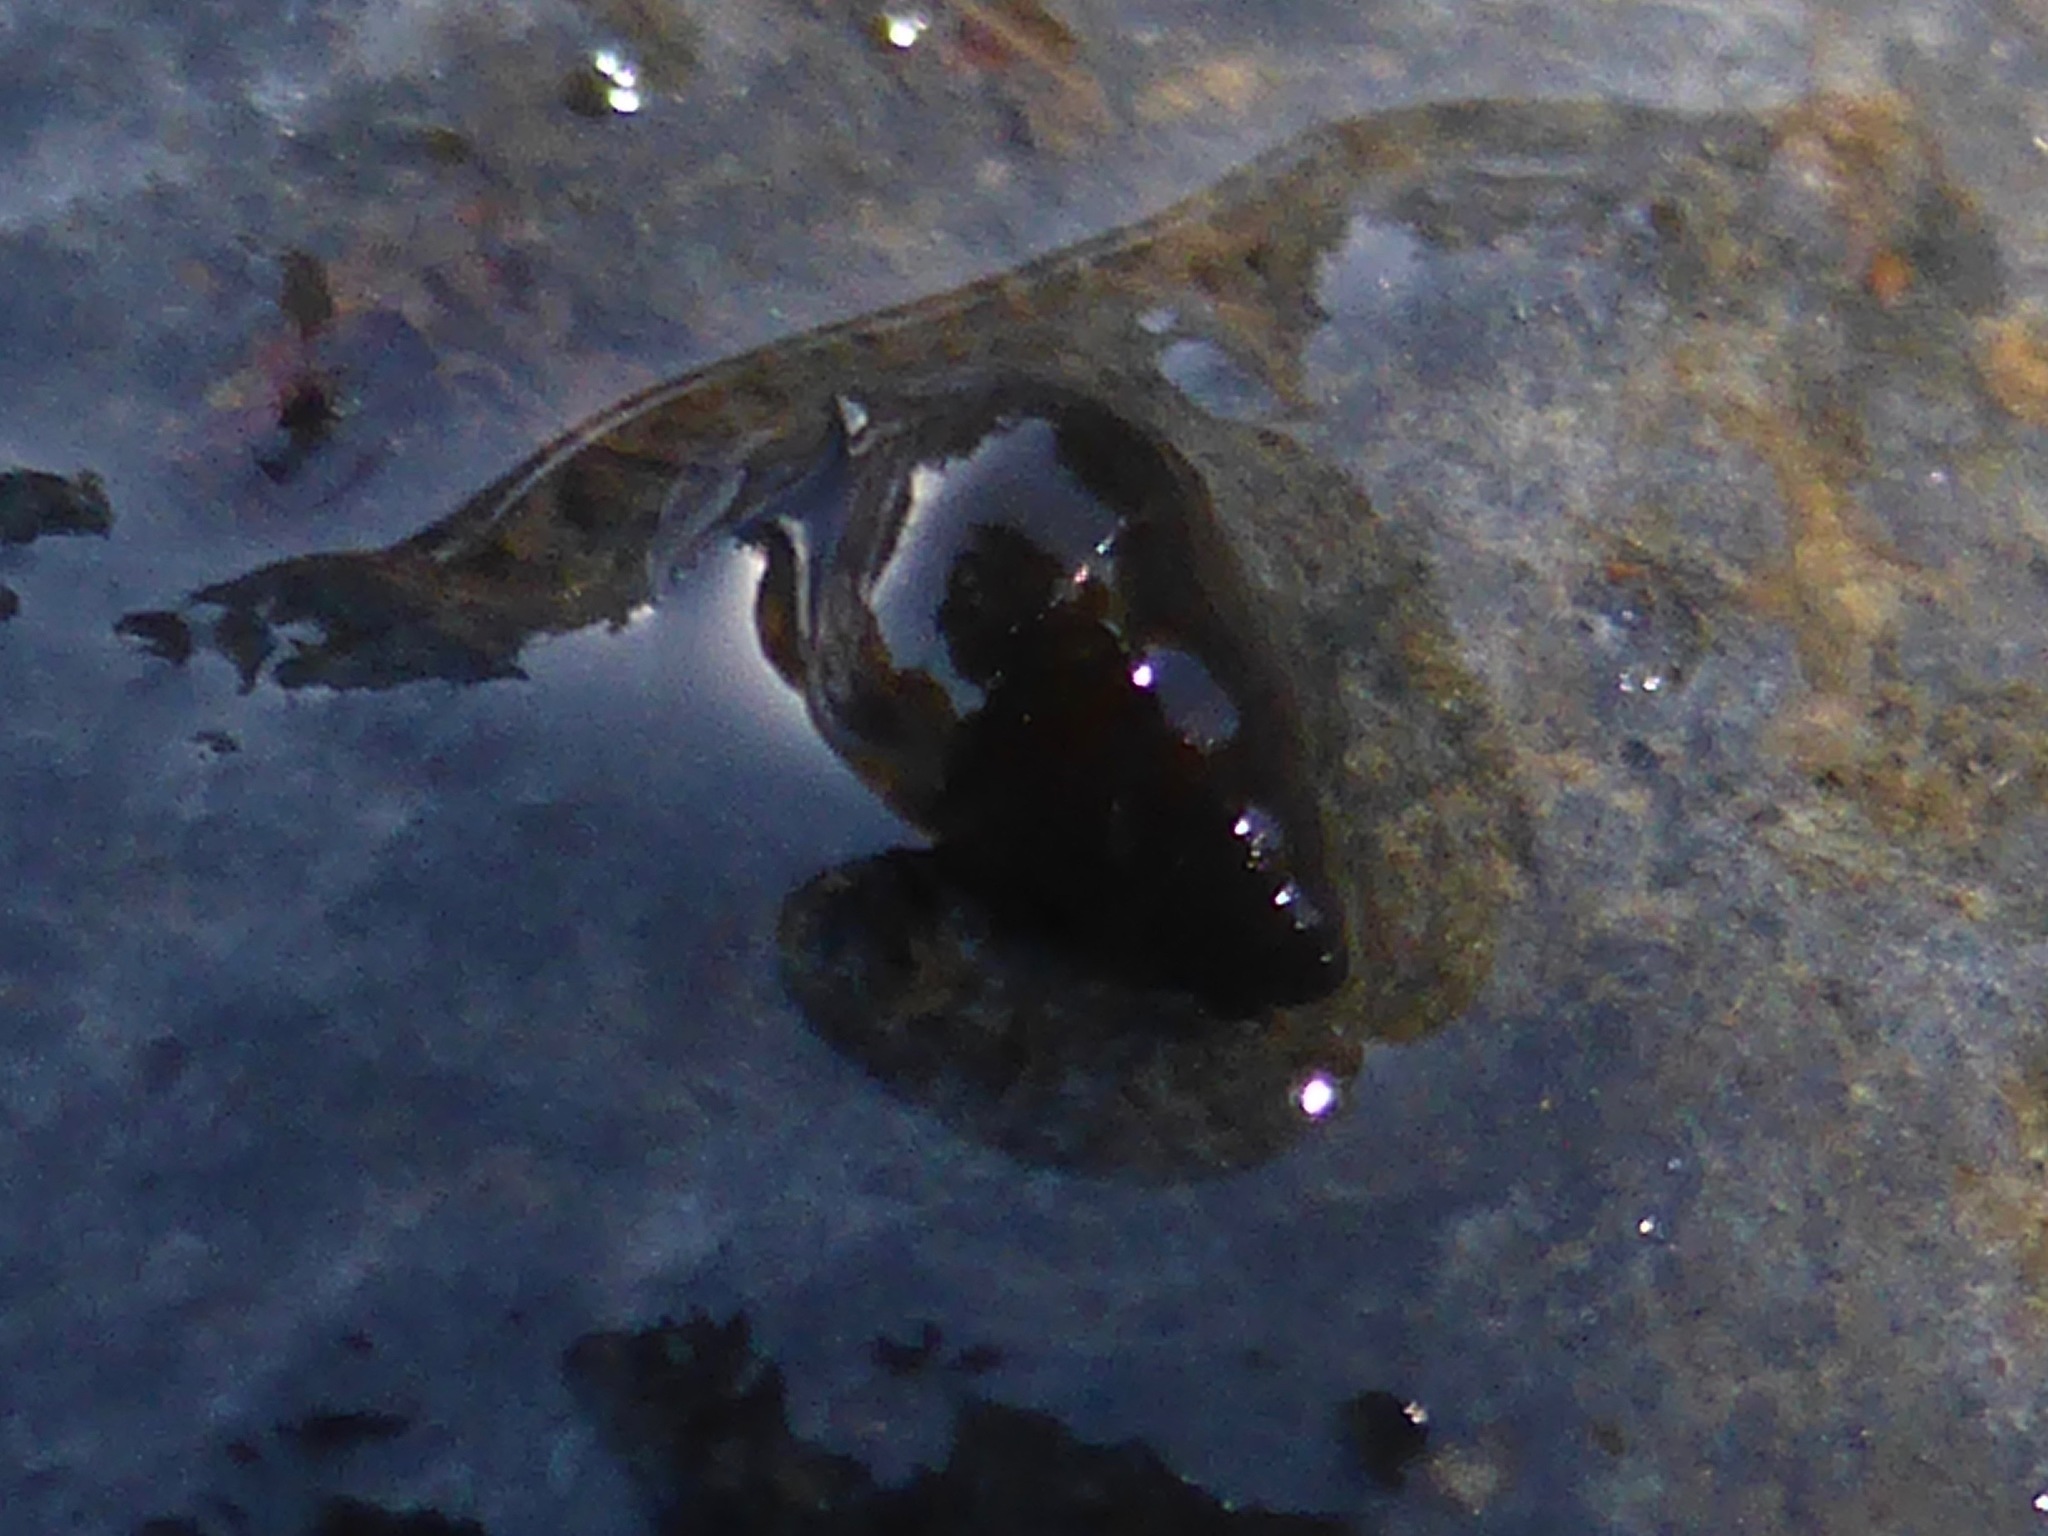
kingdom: Animalia
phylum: Mollusca
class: Gastropoda
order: Littorinimorpha
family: Tateidae
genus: Potamopyrgus
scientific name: Potamopyrgus antipodarum
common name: Jenkins' spire snail
